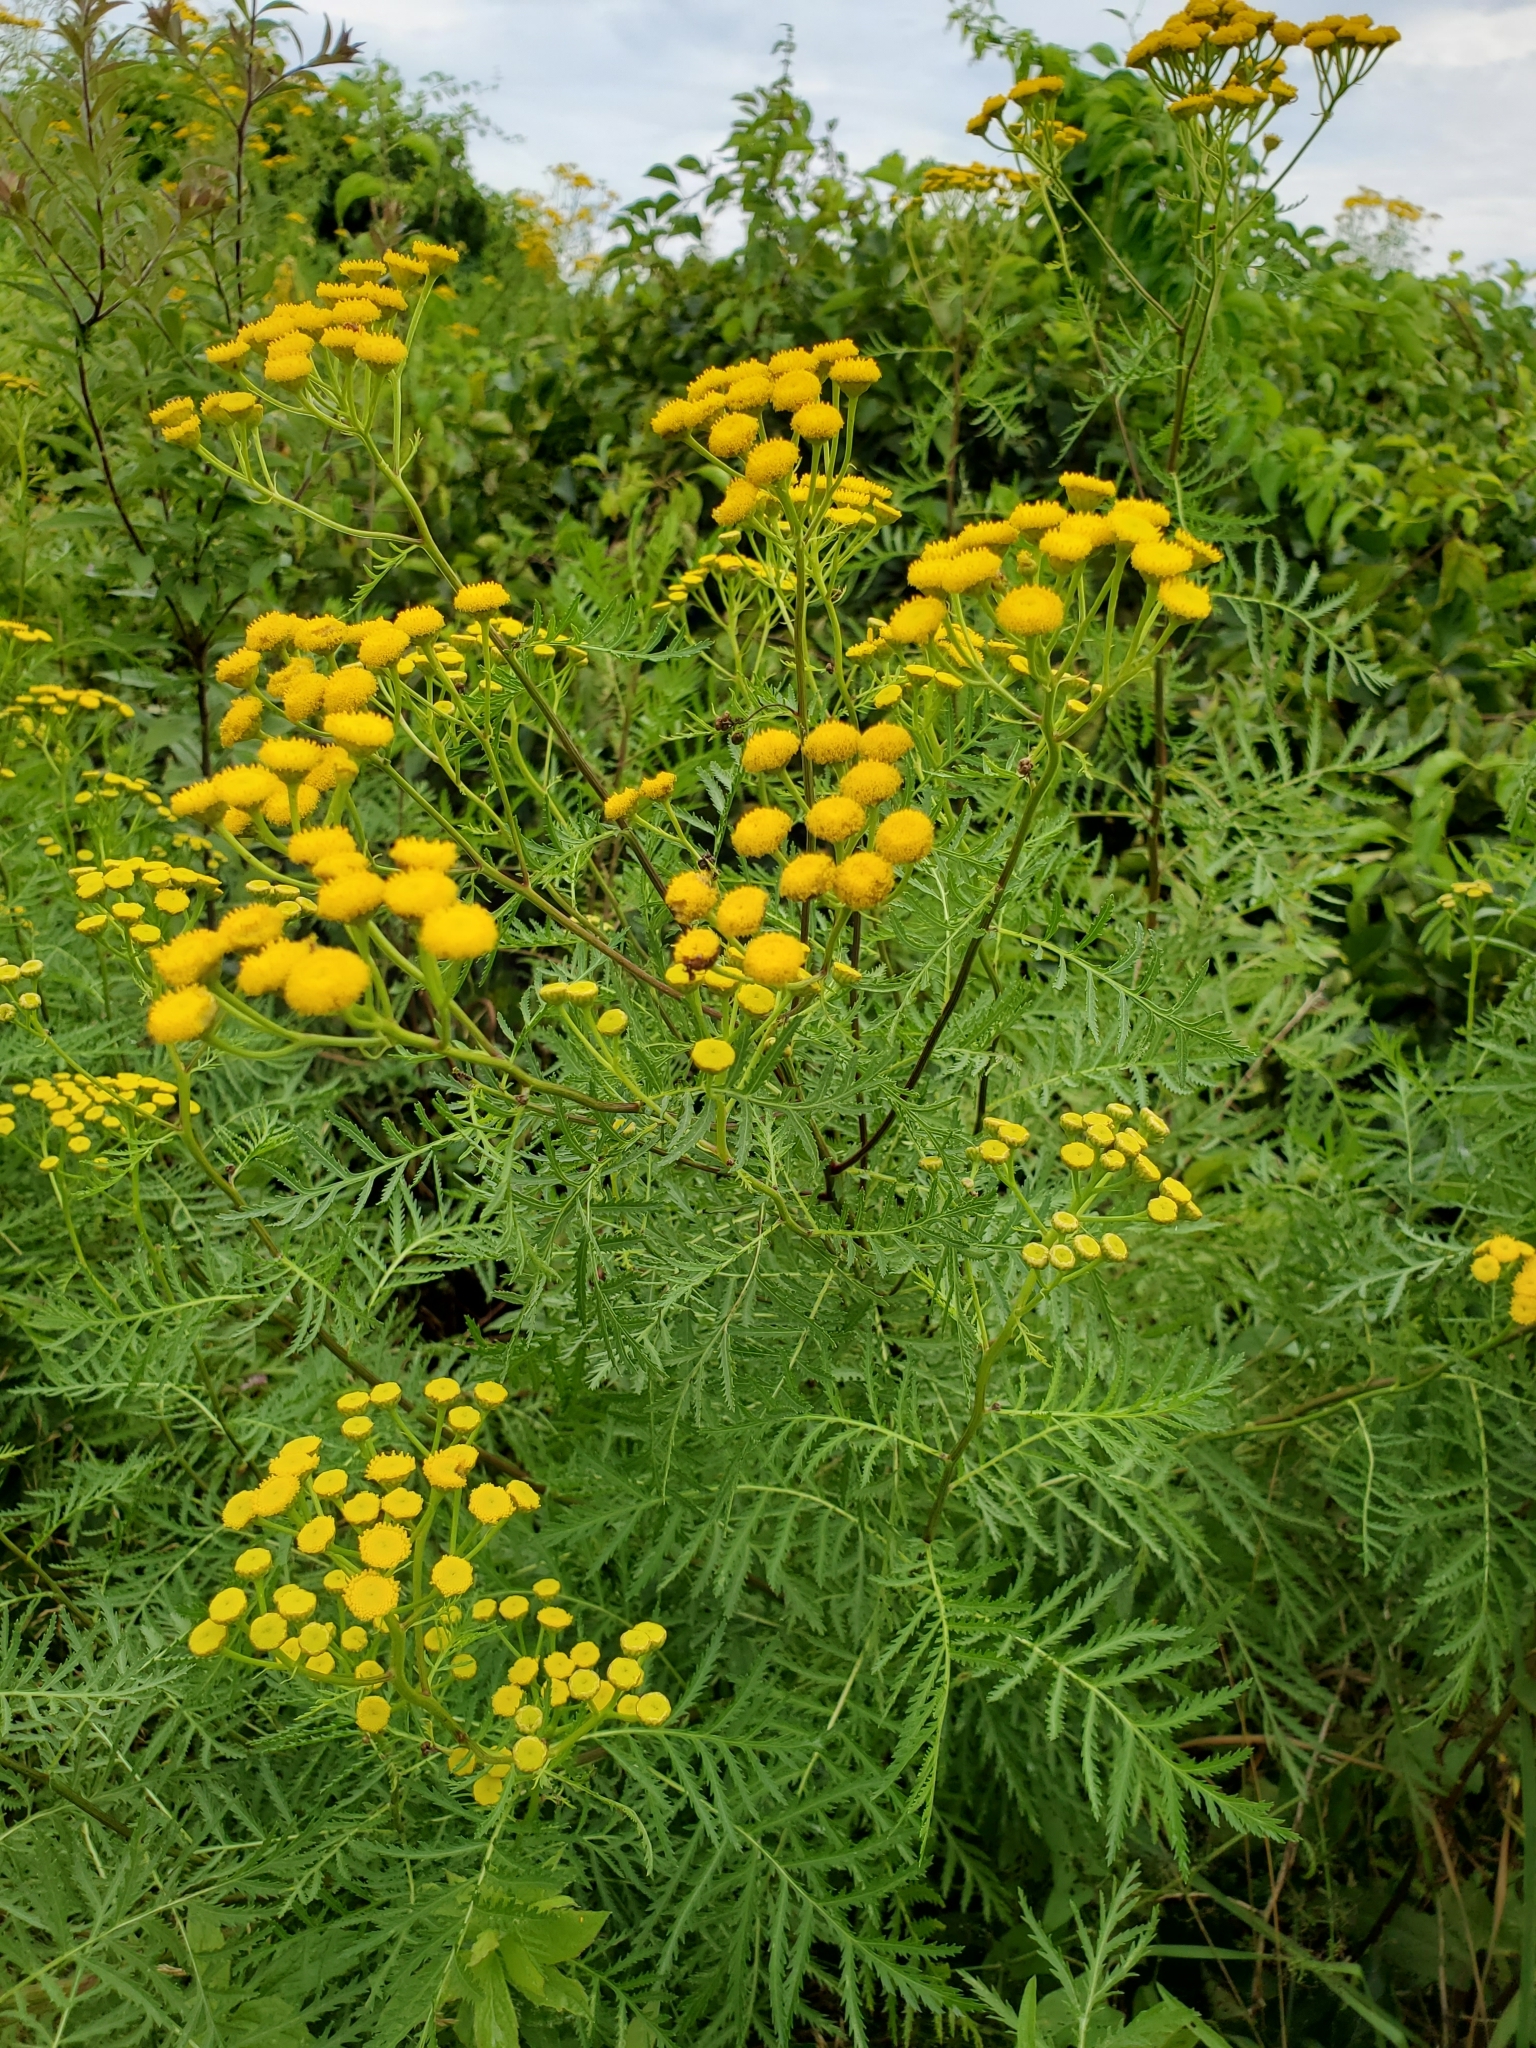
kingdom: Plantae
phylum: Tracheophyta
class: Magnoliopsida
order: Asterales
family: Asteraceae
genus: Tanacetum
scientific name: Tanacetum vulgare
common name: Common tansy
